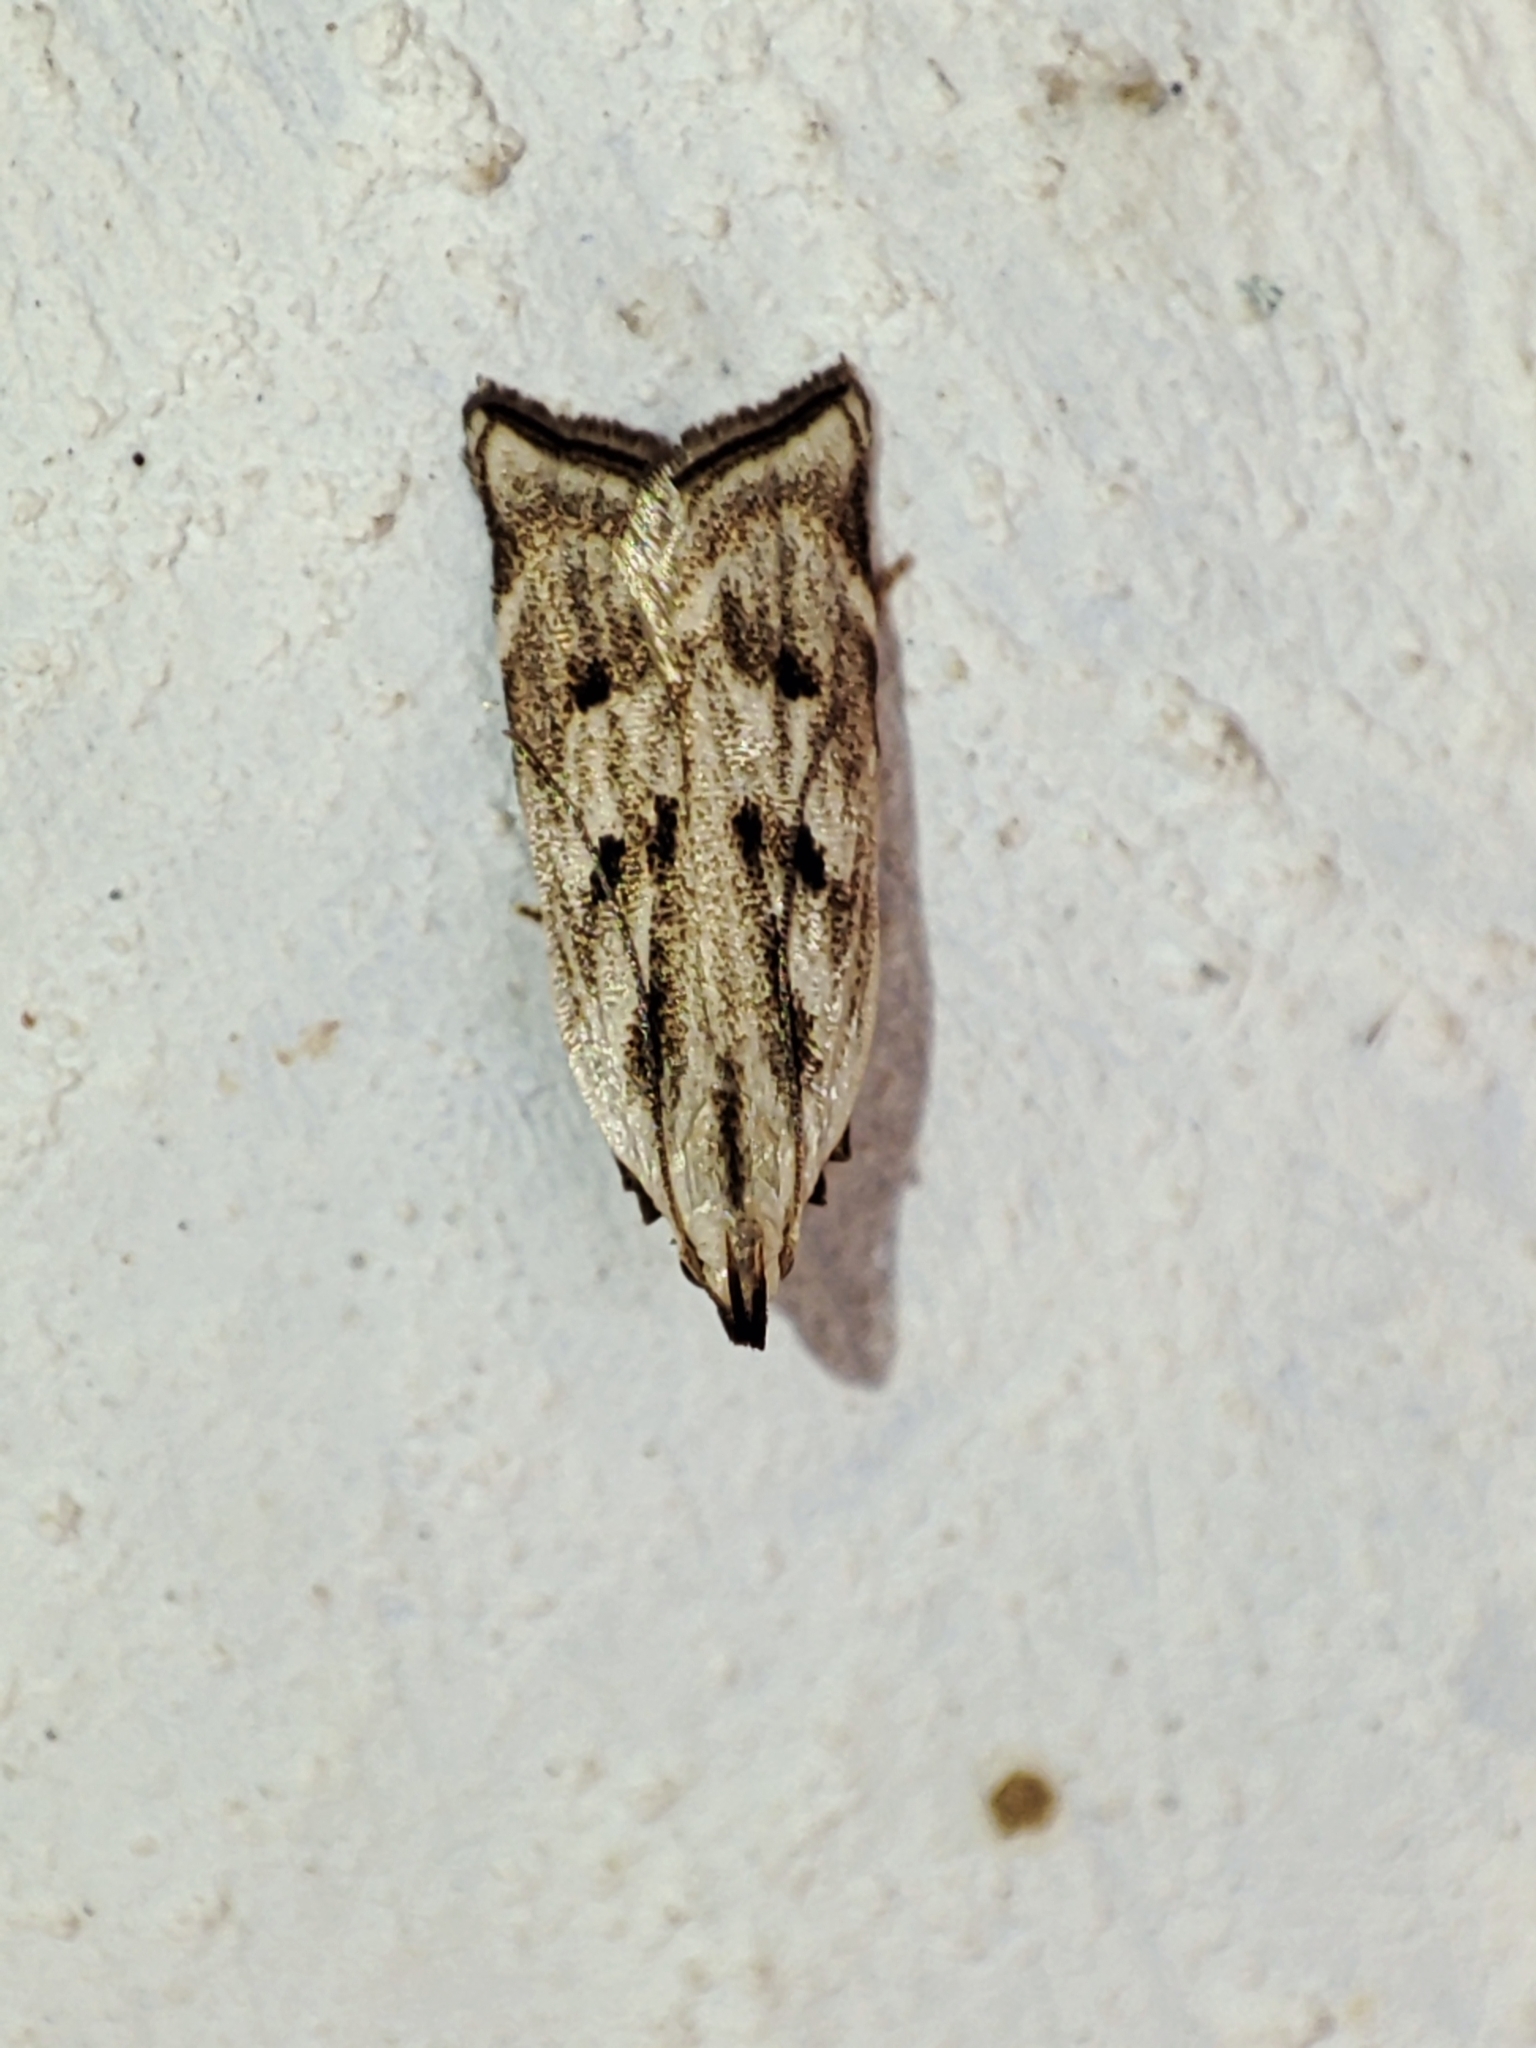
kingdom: Animalia
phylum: Arthropoda
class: Insecta
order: Lepidoptera
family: Gelechiidae
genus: Dichomeris
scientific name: Dichomeris rasilella
